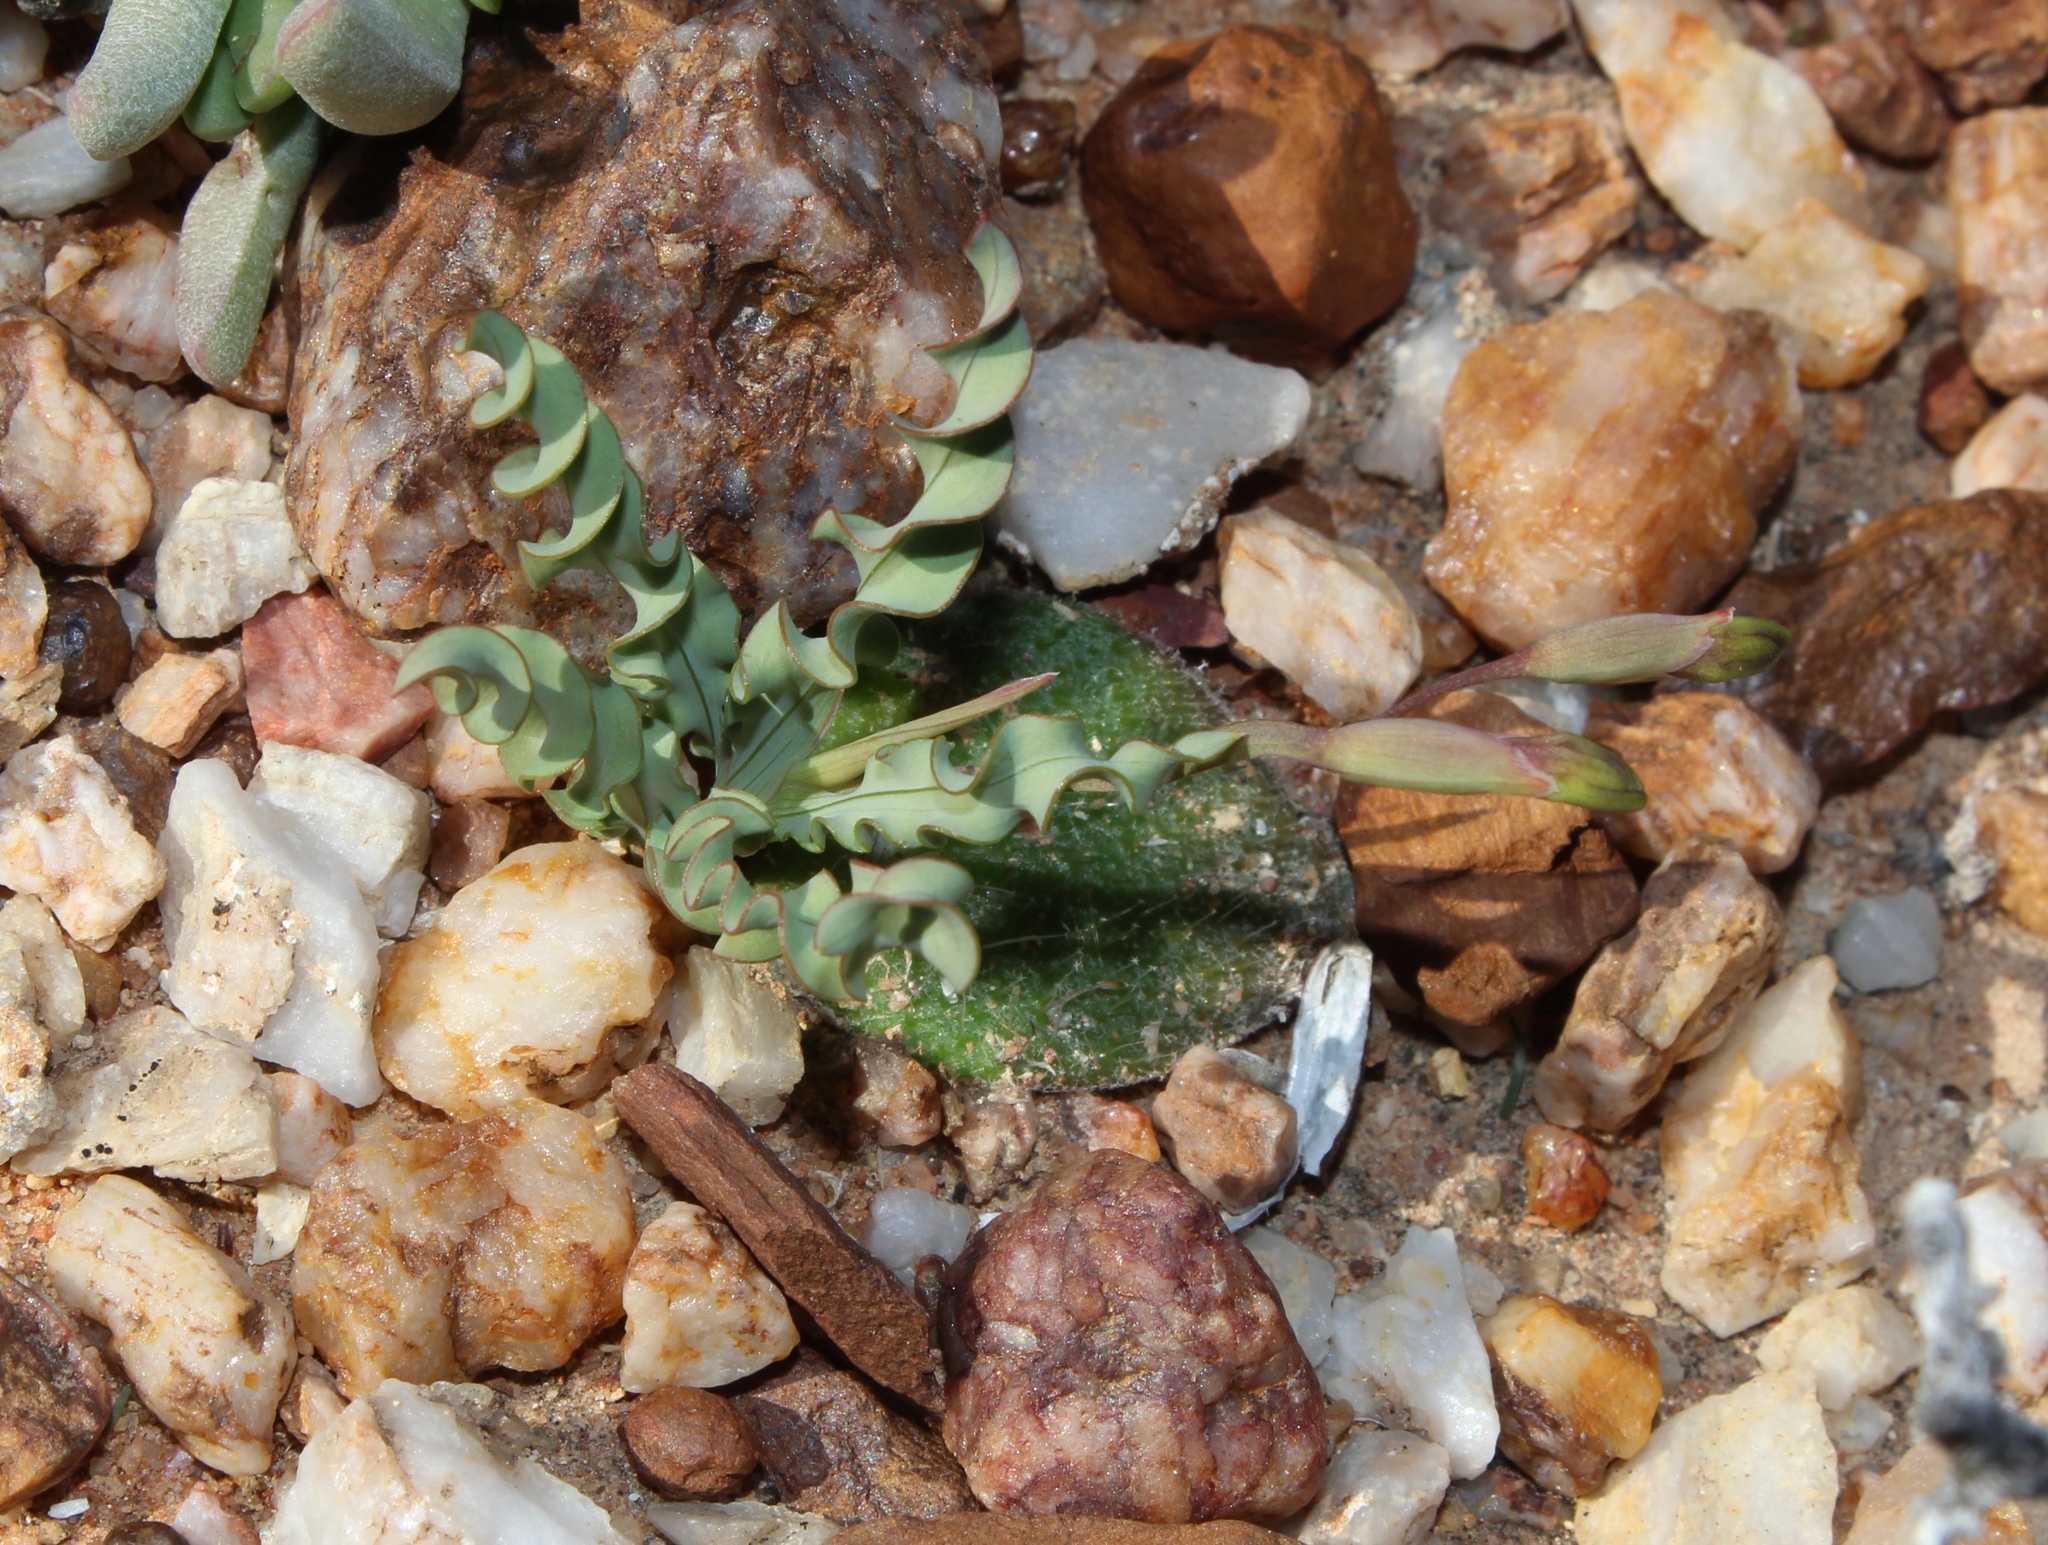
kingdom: Plantae
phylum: Tracheophyta
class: Liliopsida
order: Asparagales
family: Iridaceae
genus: Freesia
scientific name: Freesia viridis
